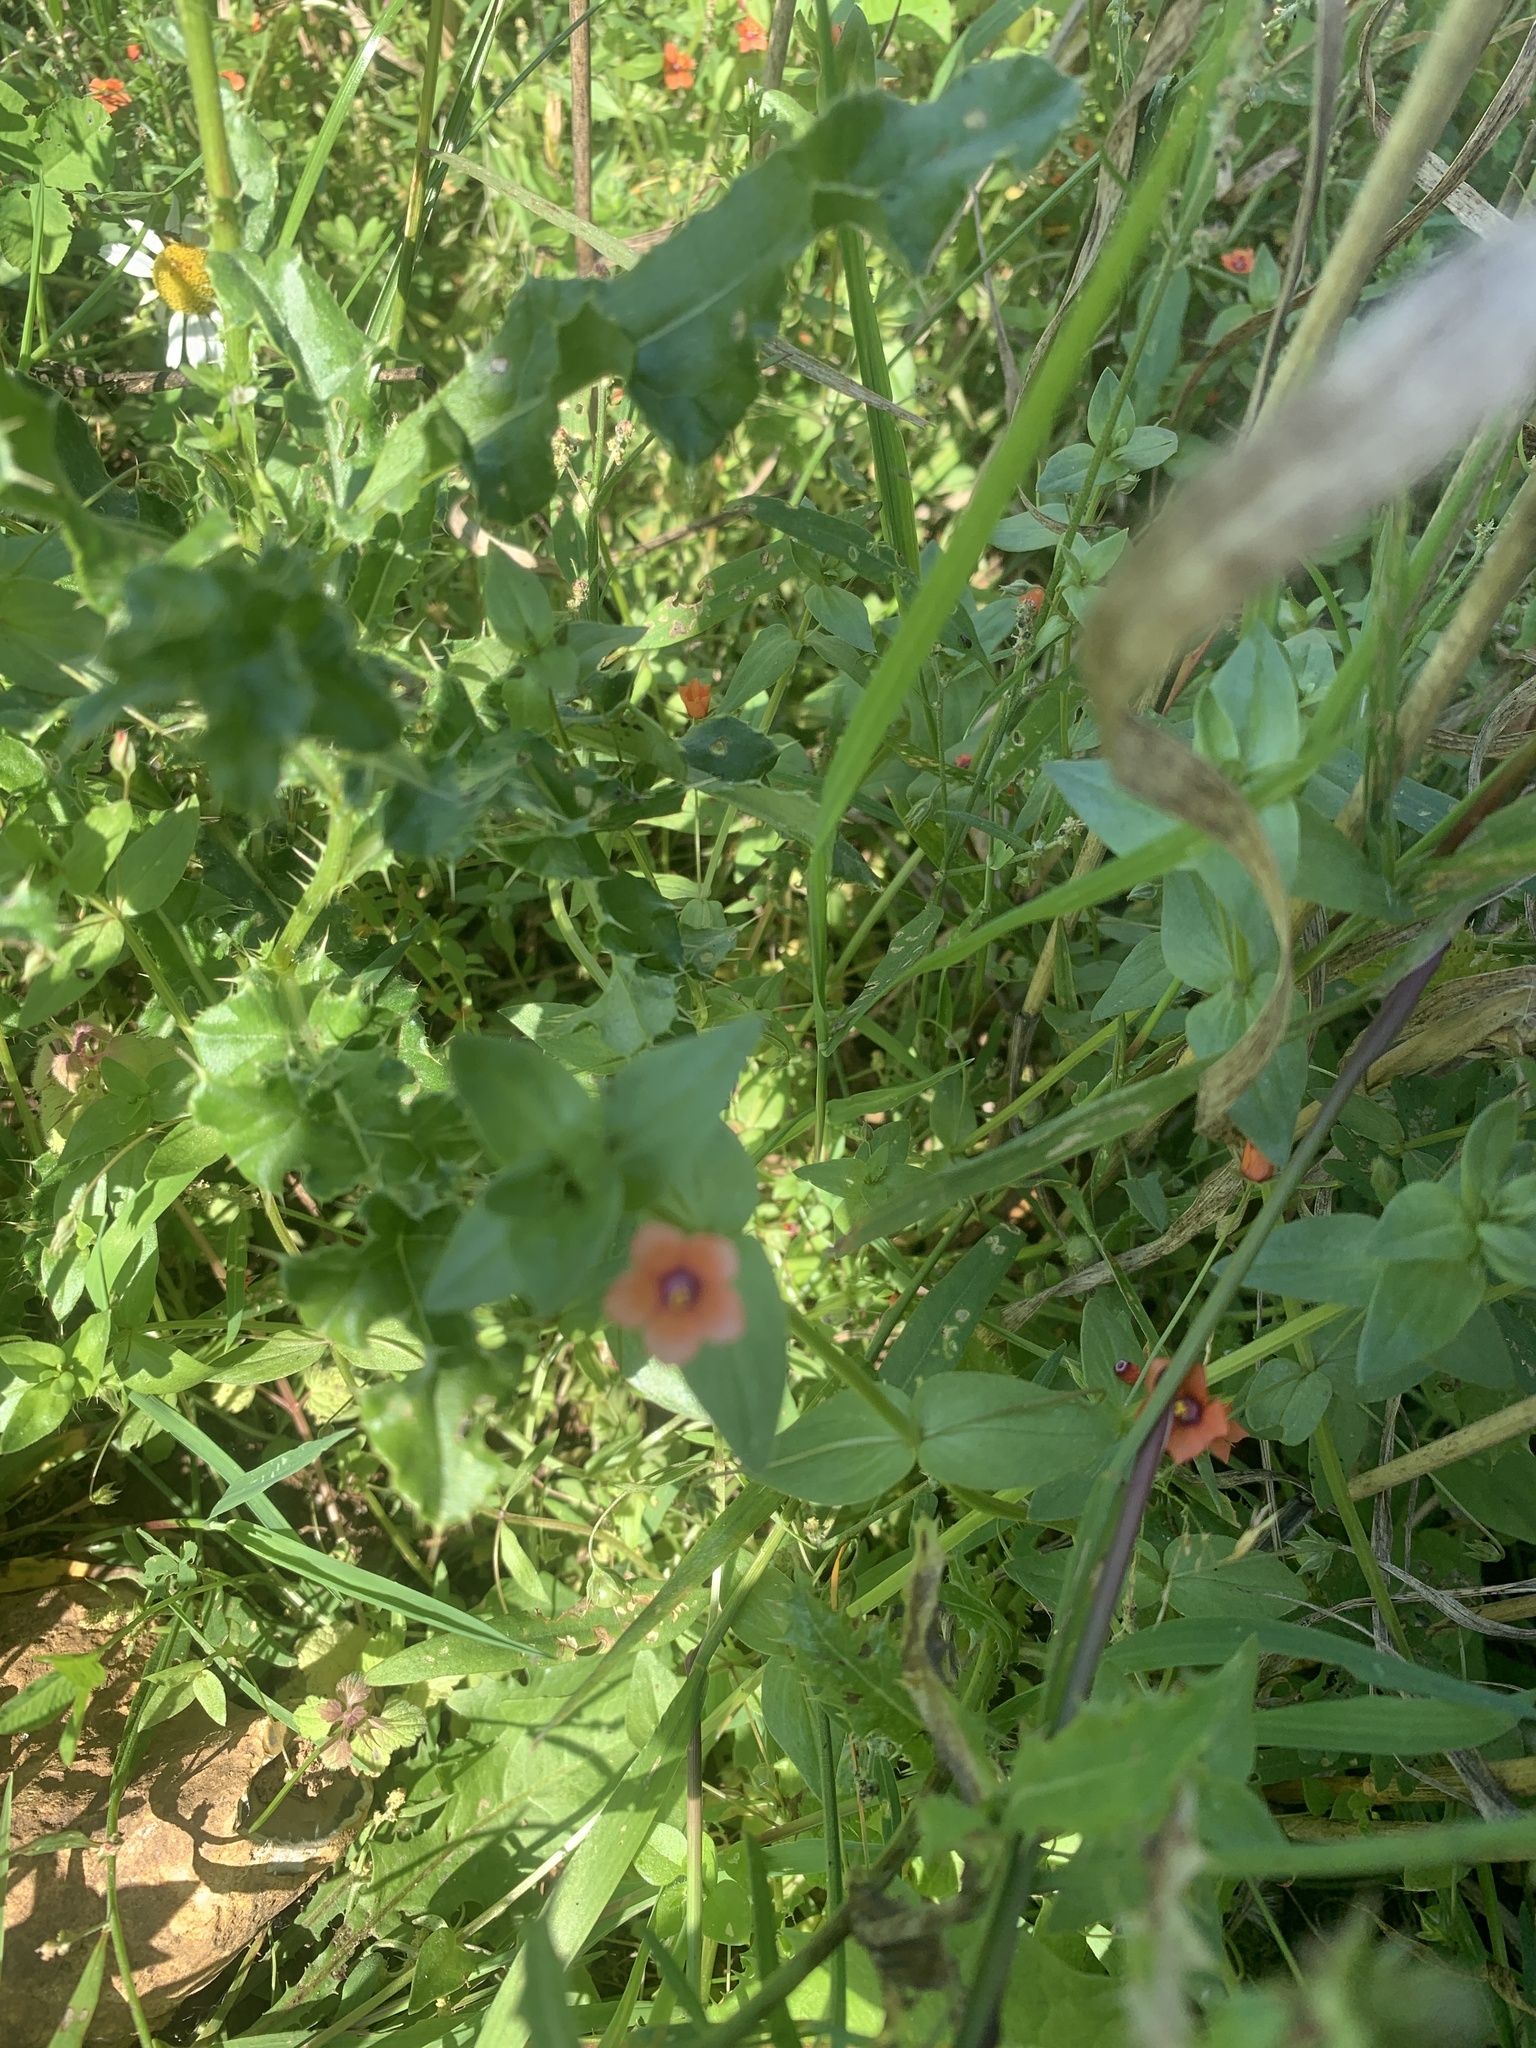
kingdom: Plantae
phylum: Tracheophyta
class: Magnoliopsida
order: Ericales
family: Primulaceae
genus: Lysimachia
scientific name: Lysimachia arvensis
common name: Scarlet pimpernel
